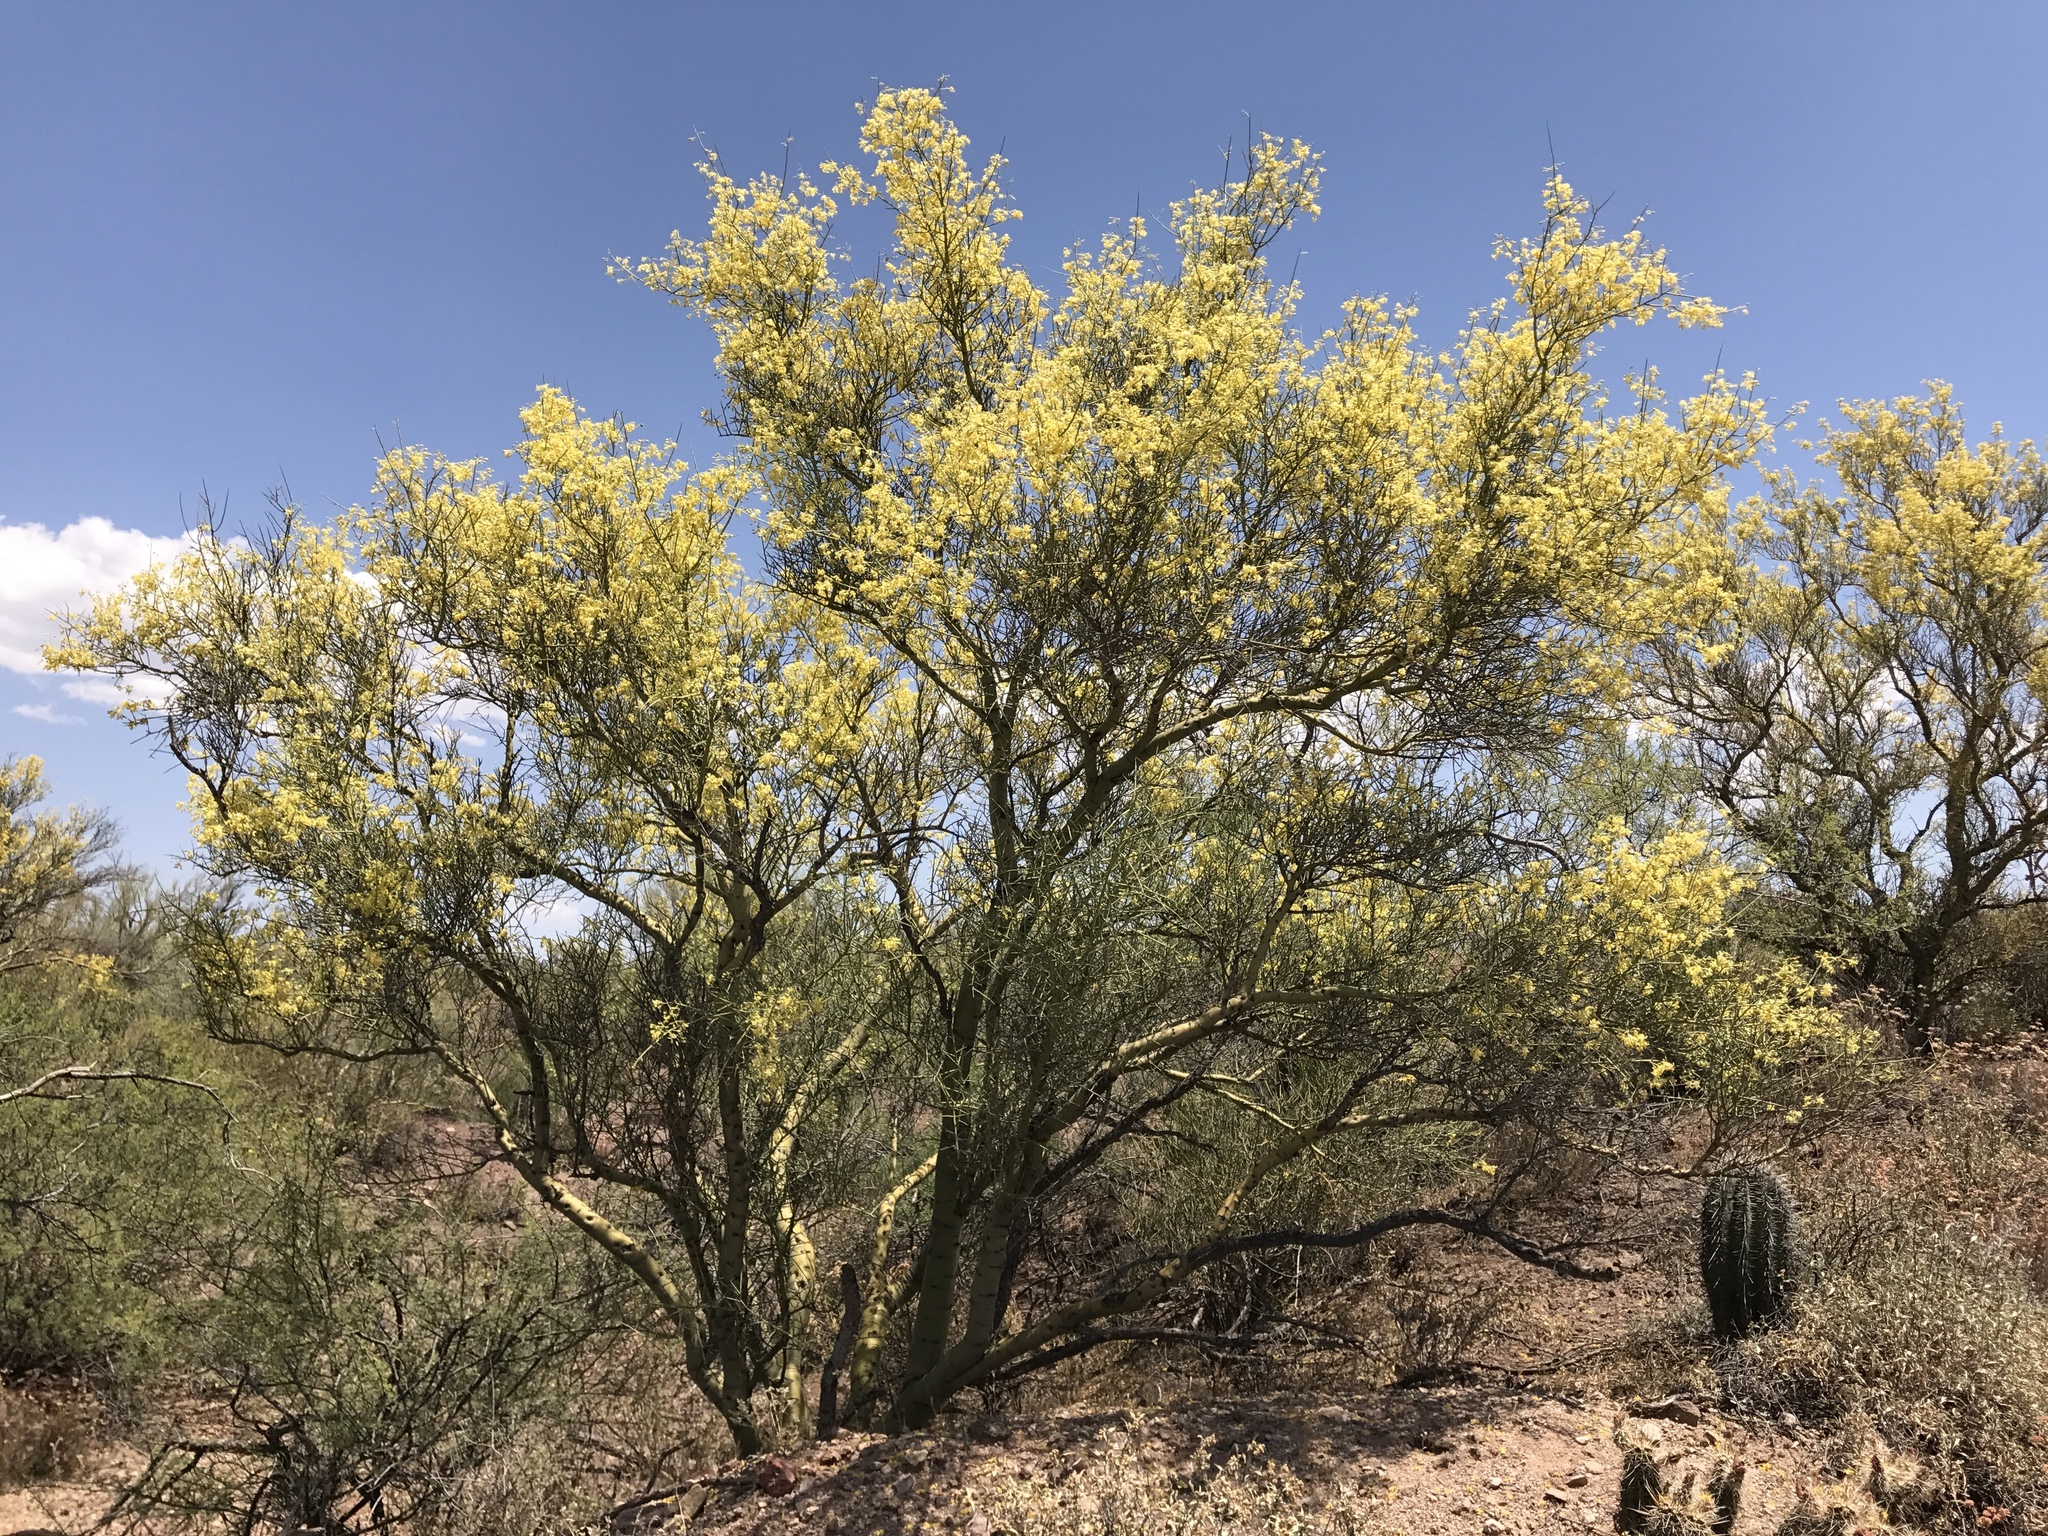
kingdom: Plantae
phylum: Tracheophyta
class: Magnoliopsida
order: Fabales
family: Fabaceae
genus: Parkinsonia
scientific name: Parkinsonia microphylla
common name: Yellow paloverde
